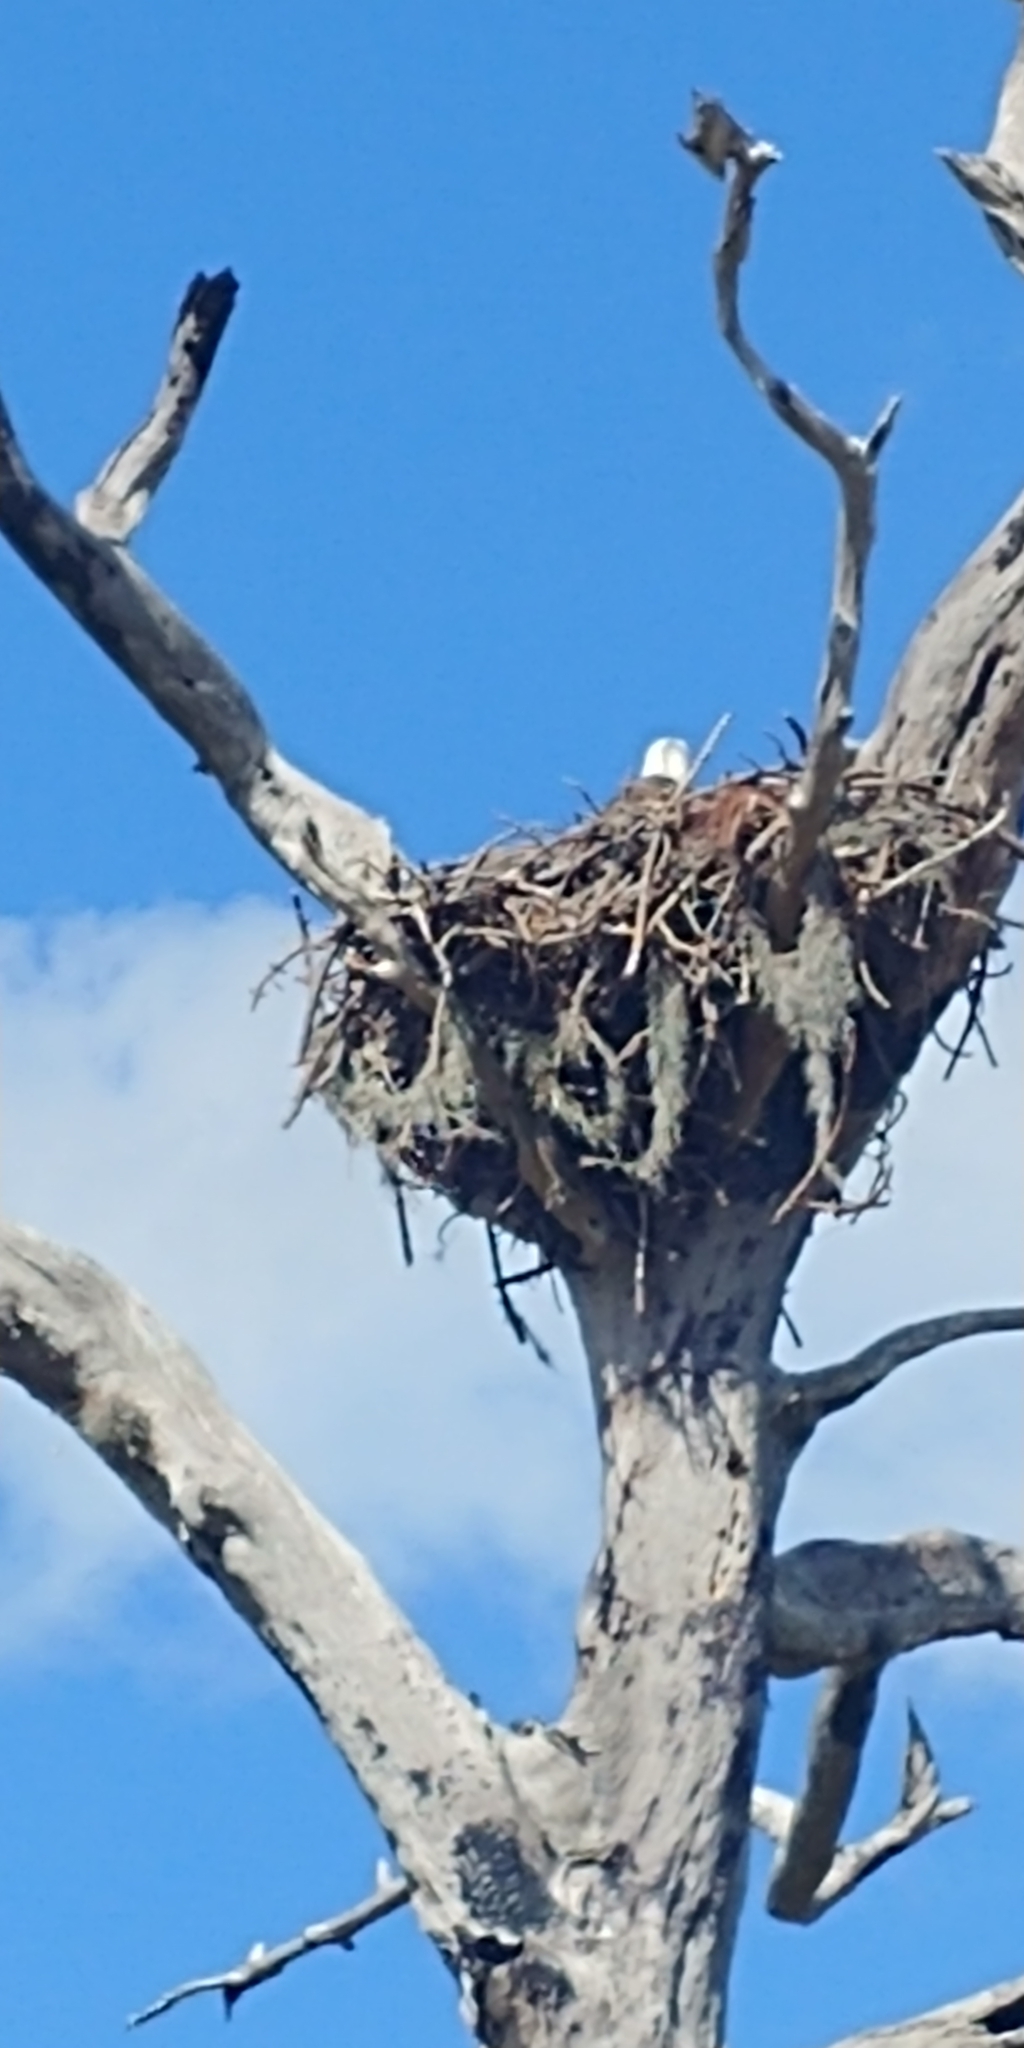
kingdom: Animalia
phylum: Chordata
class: Aves
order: Accipitriformes
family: Accipitridae
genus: Haliaeetus
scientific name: Haliaeetus leucocephalus
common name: Bald eagle
